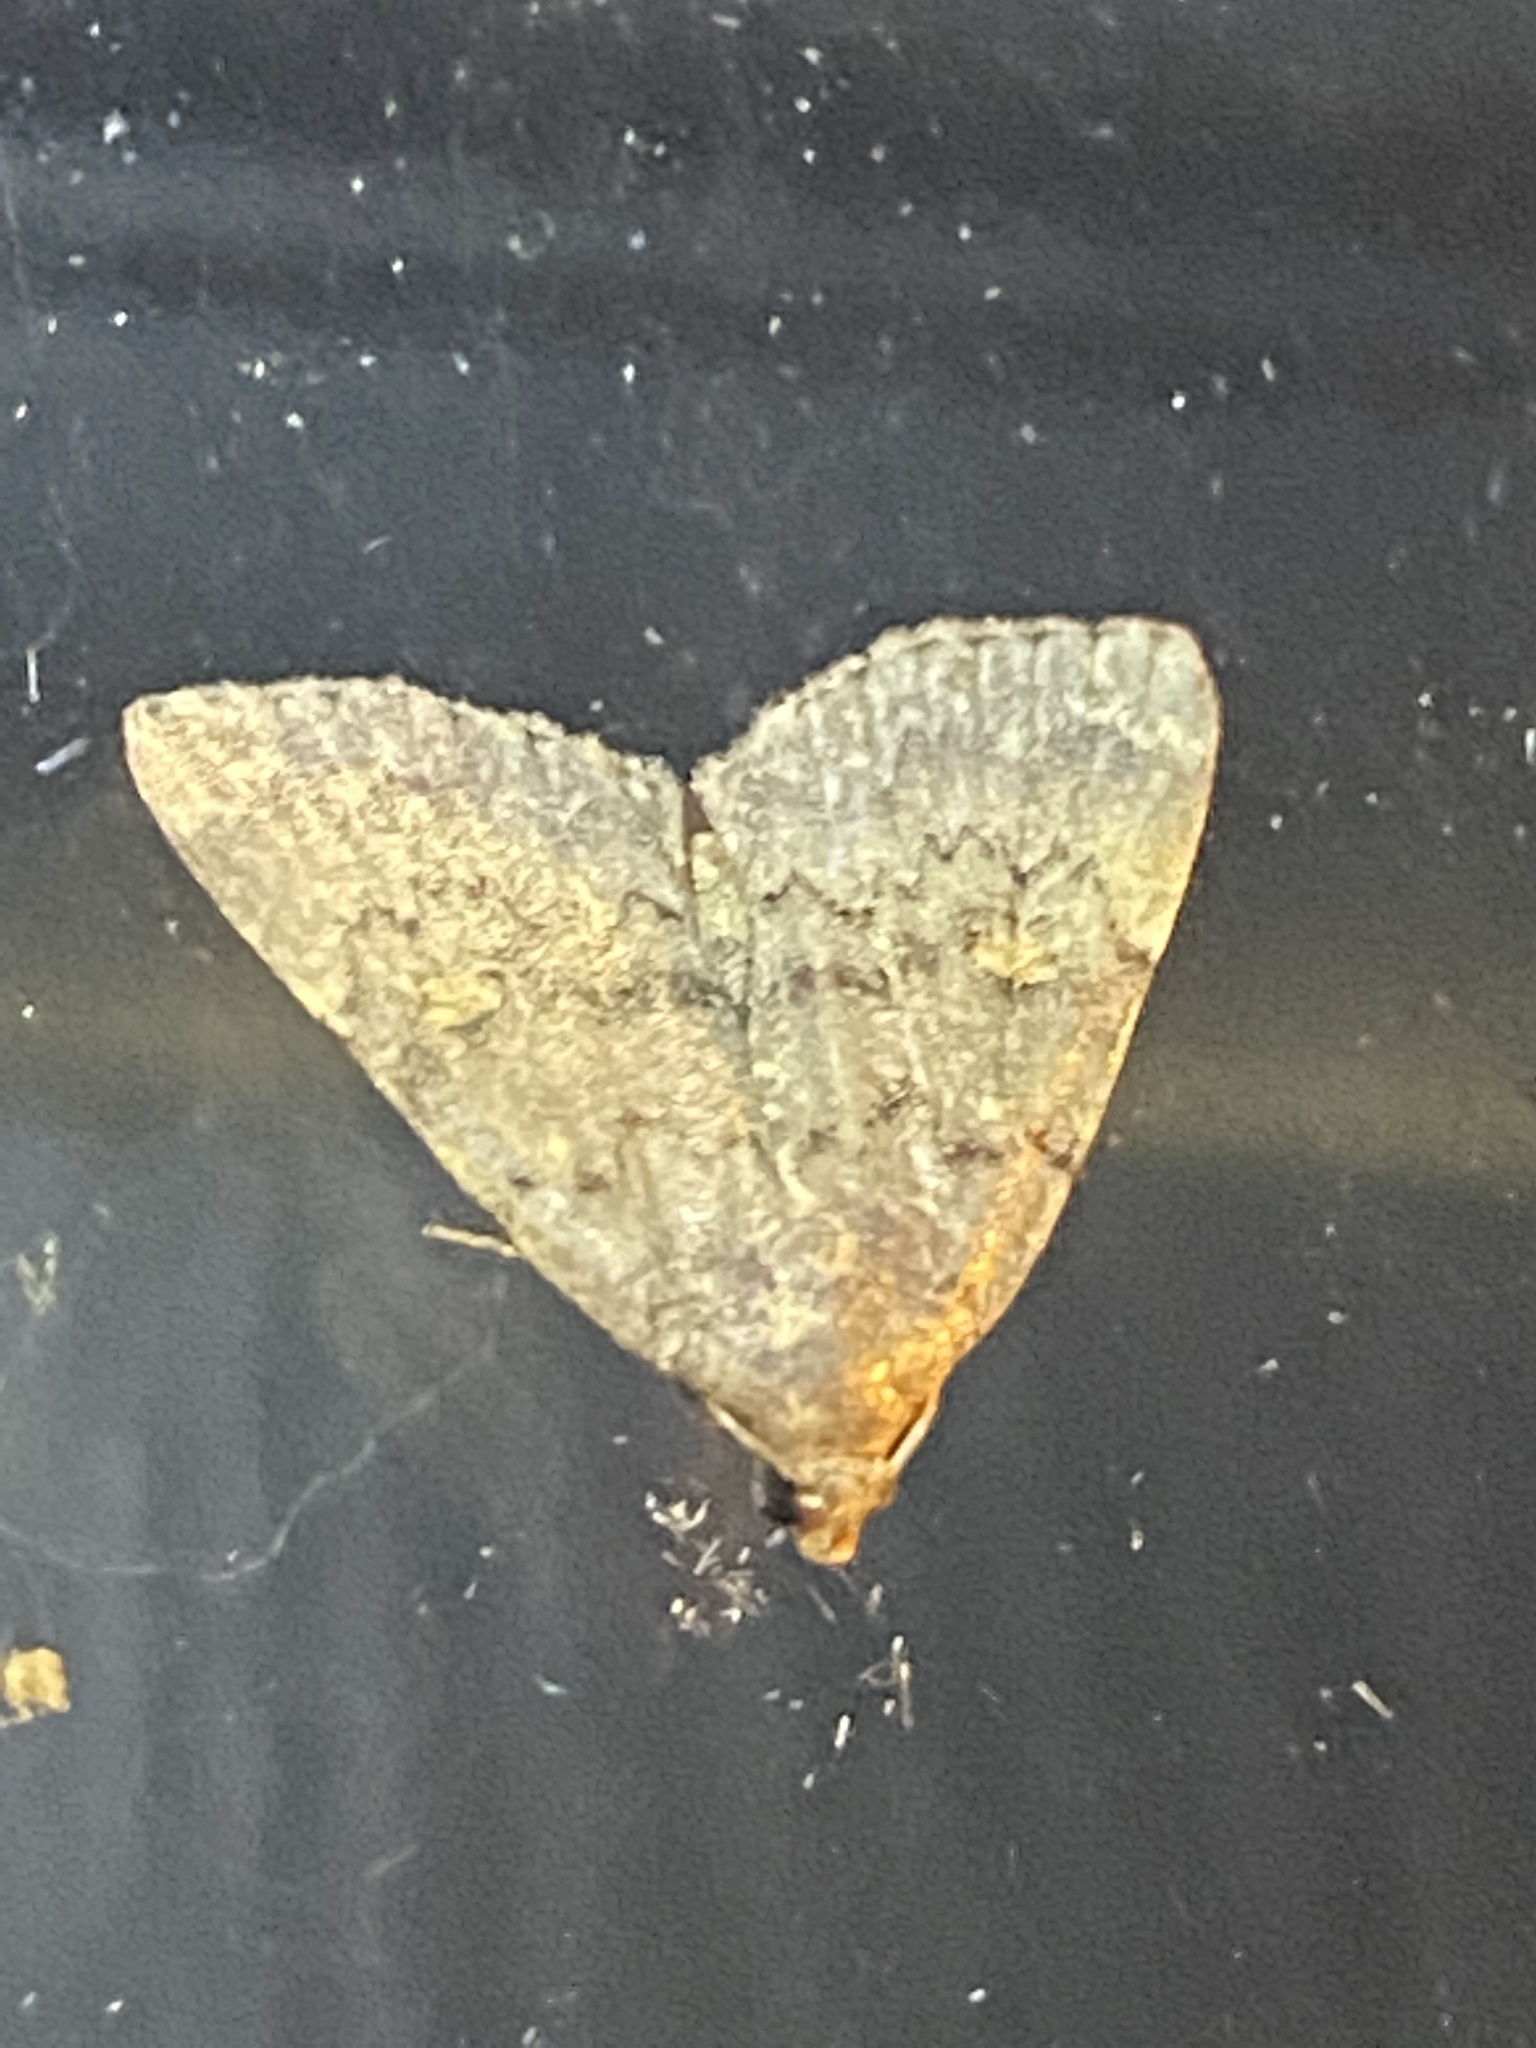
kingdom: Animalia
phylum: Arthropoda
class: Insecta
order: Lepidoptera
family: Erebidae
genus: Idia
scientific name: Idia aemula
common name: Common idia moth
